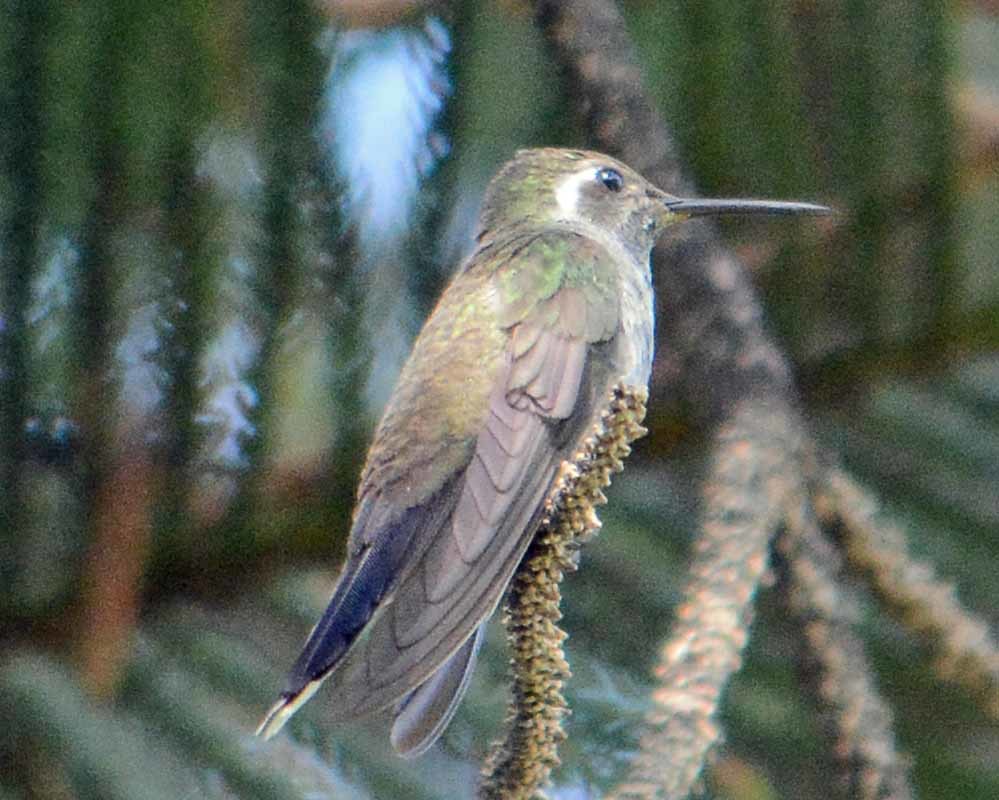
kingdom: Animalia
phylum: Chordata
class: Aves
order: Apodiformes
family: Trochilidae
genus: Cynanthus
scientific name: Cynanthus latirostris
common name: Broad-billed hummingbird
